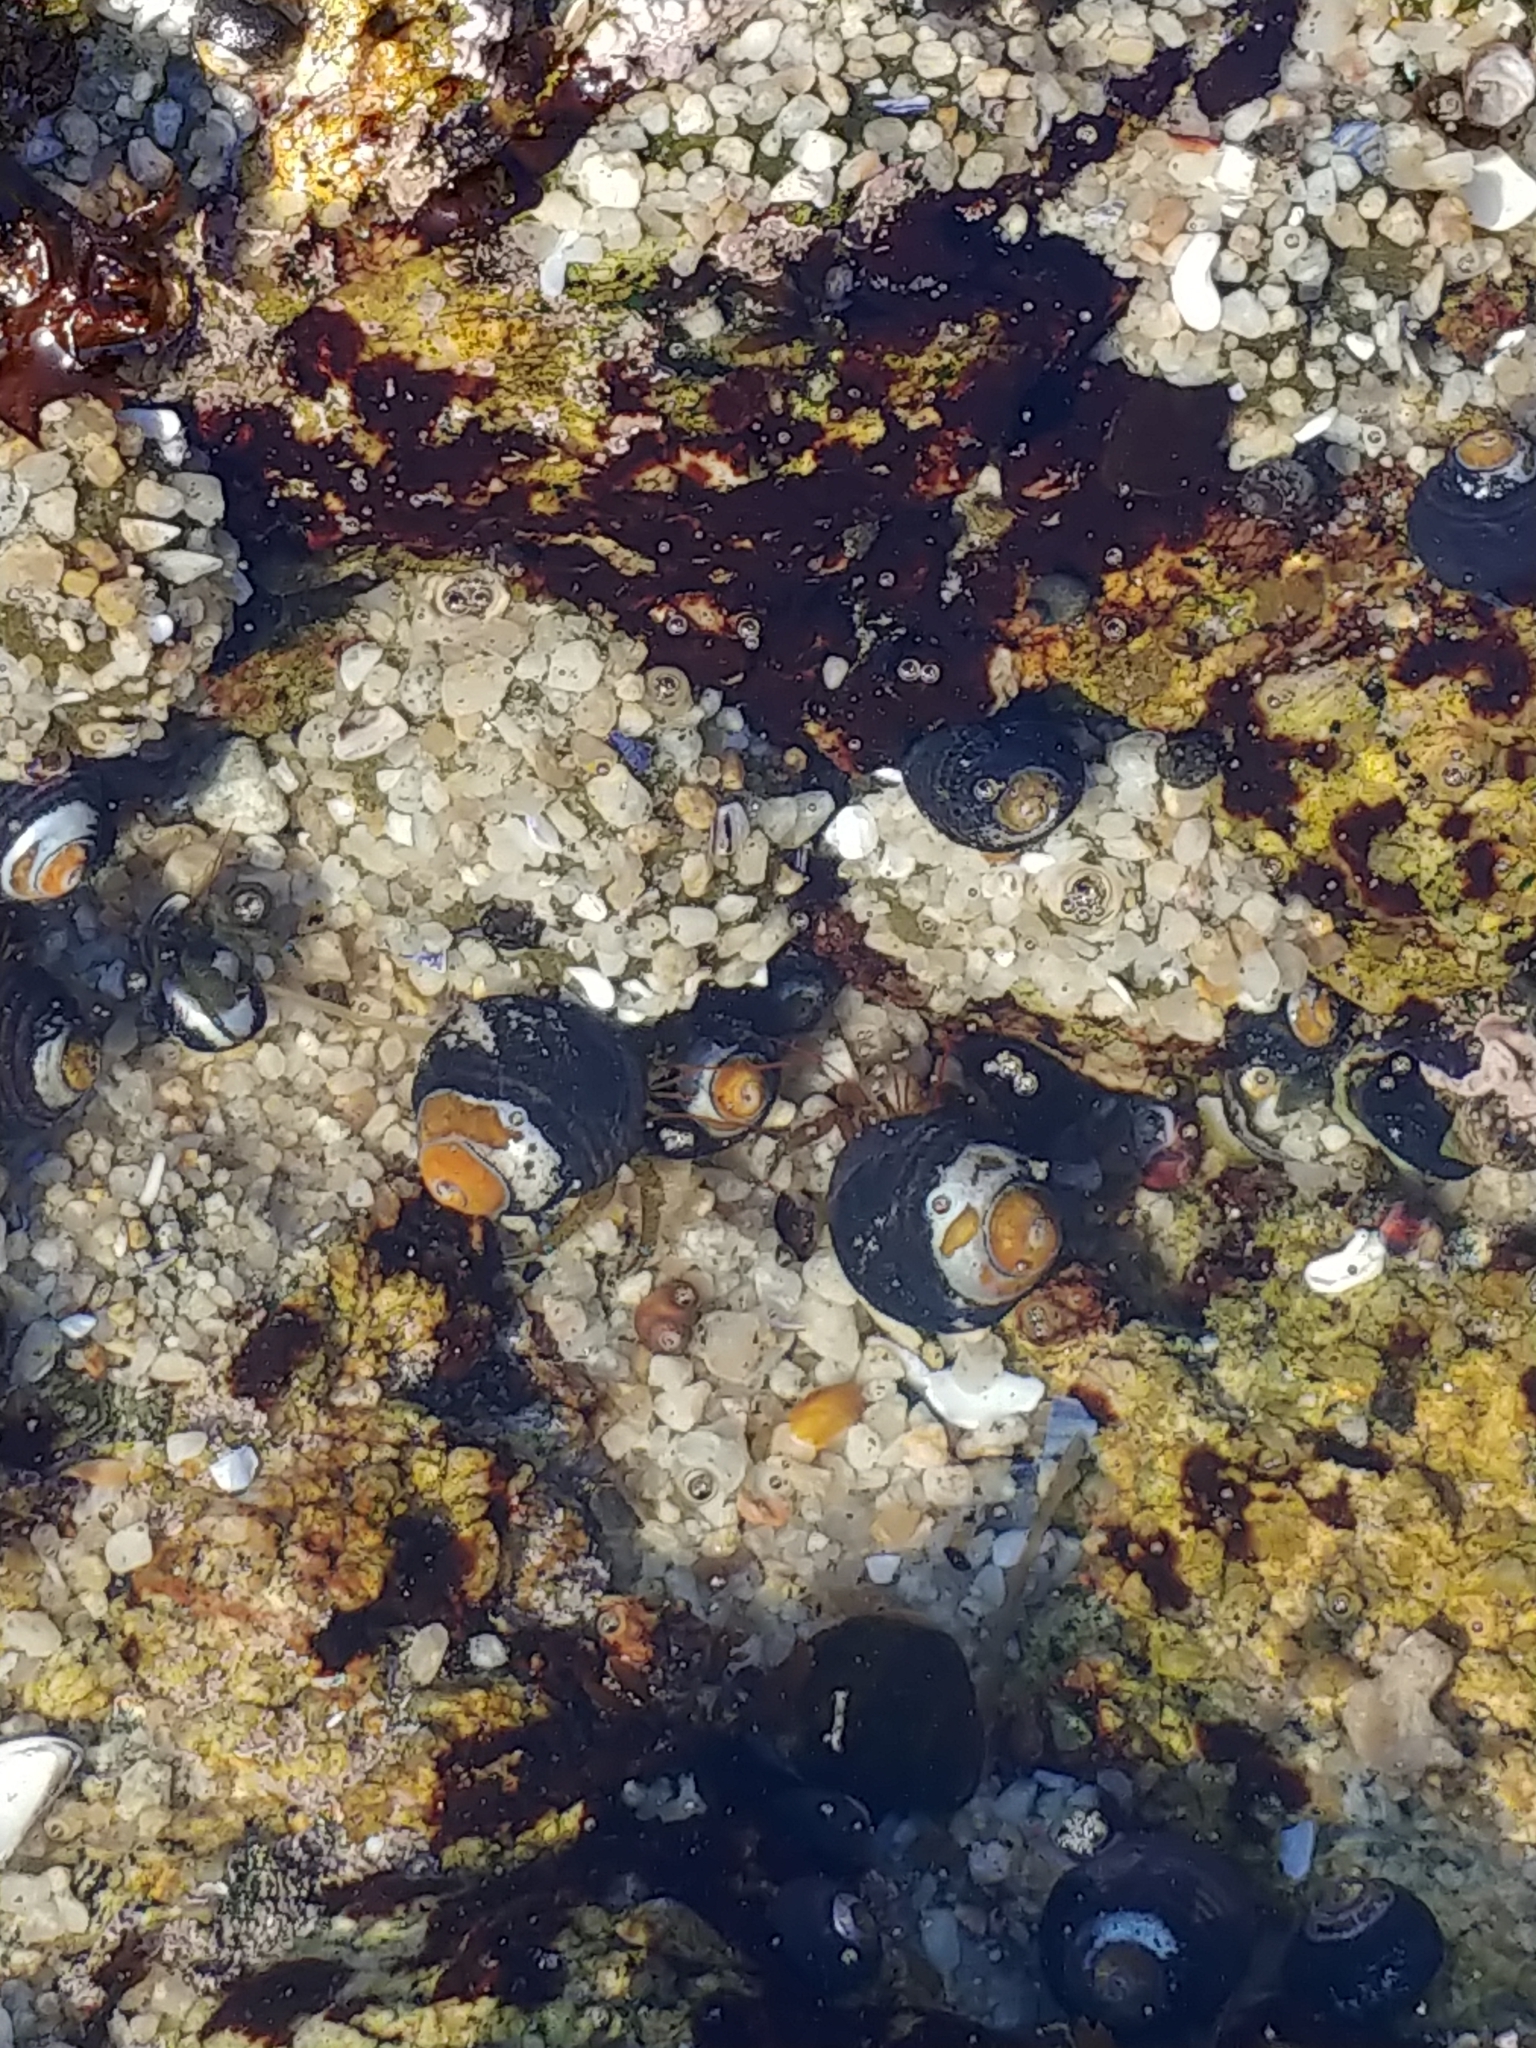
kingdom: Animalia
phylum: Arthropoda
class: Malacostraca
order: Decapoda
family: Paguridae
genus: Pagurus
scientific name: Pagurus samuelis
